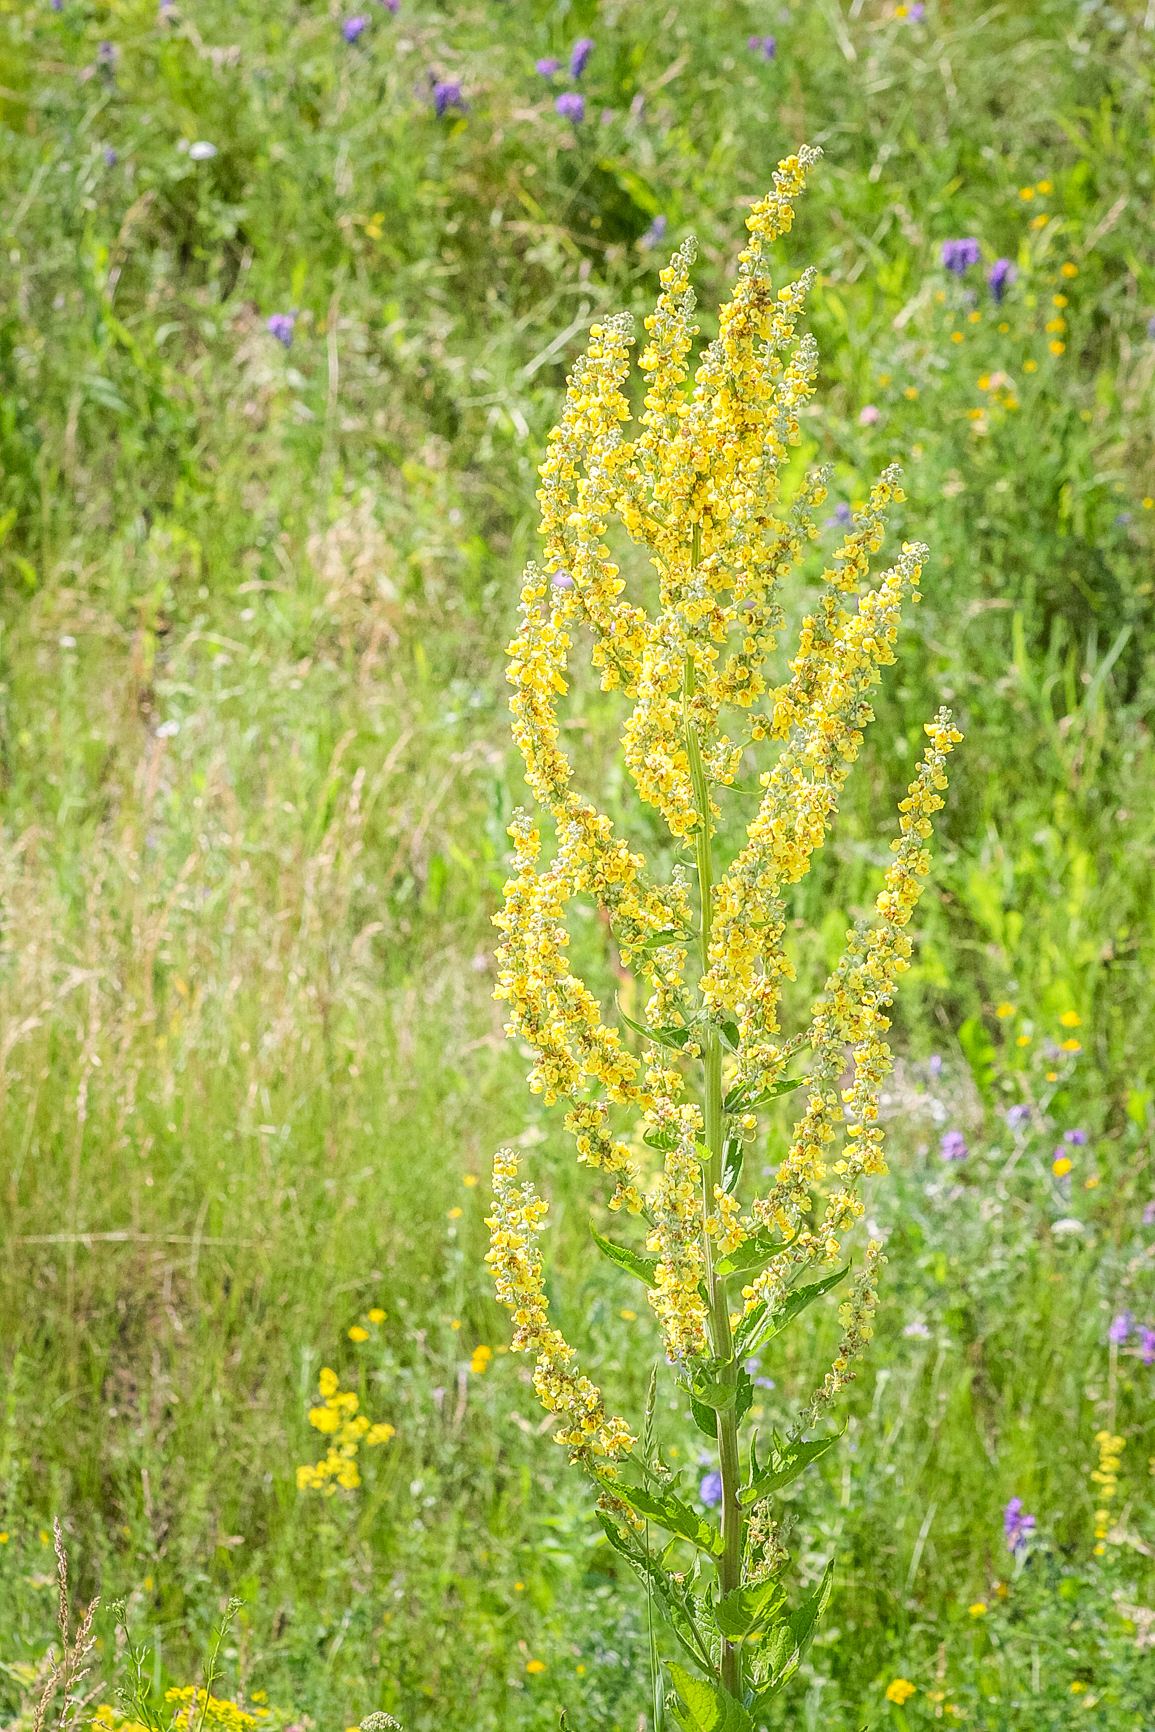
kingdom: Plantae
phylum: Tracheophyta
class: Magnoliopsida
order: Lamiales
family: Scrophulariaceae
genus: Verbascum
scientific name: Verbascum lychnitis
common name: White mullein
